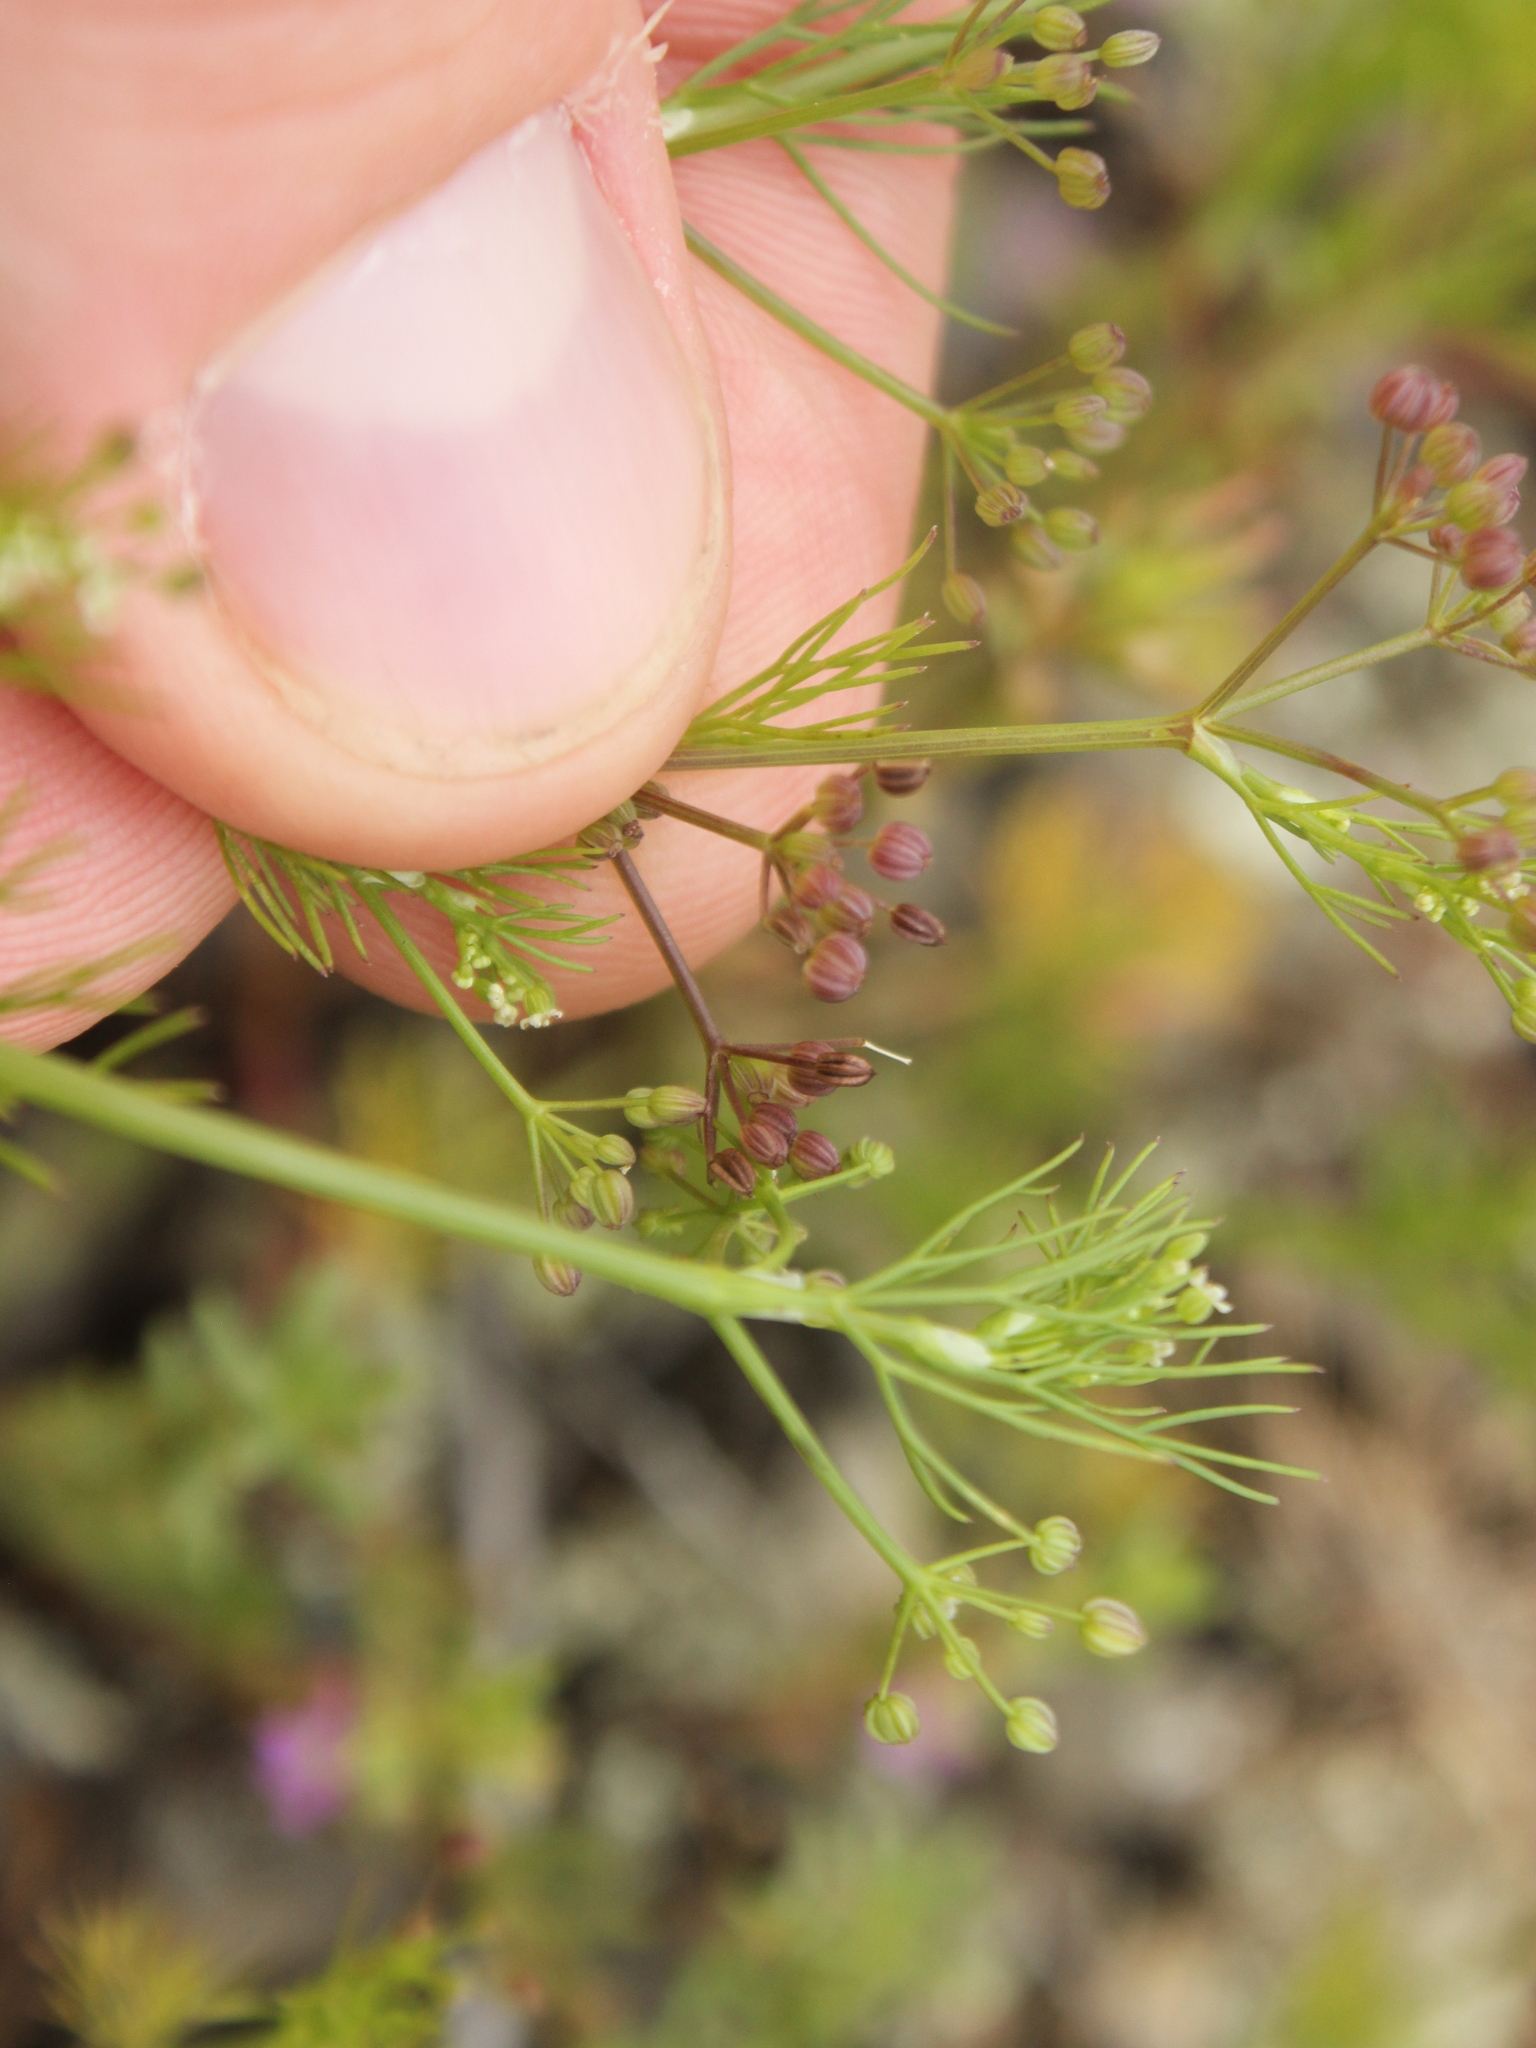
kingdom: Plantae
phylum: Tracheophyta
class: Magnoliopsida
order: Apiales
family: Apiaceae
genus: Cyclospermum
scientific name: Cyclospermum leptophyllum
